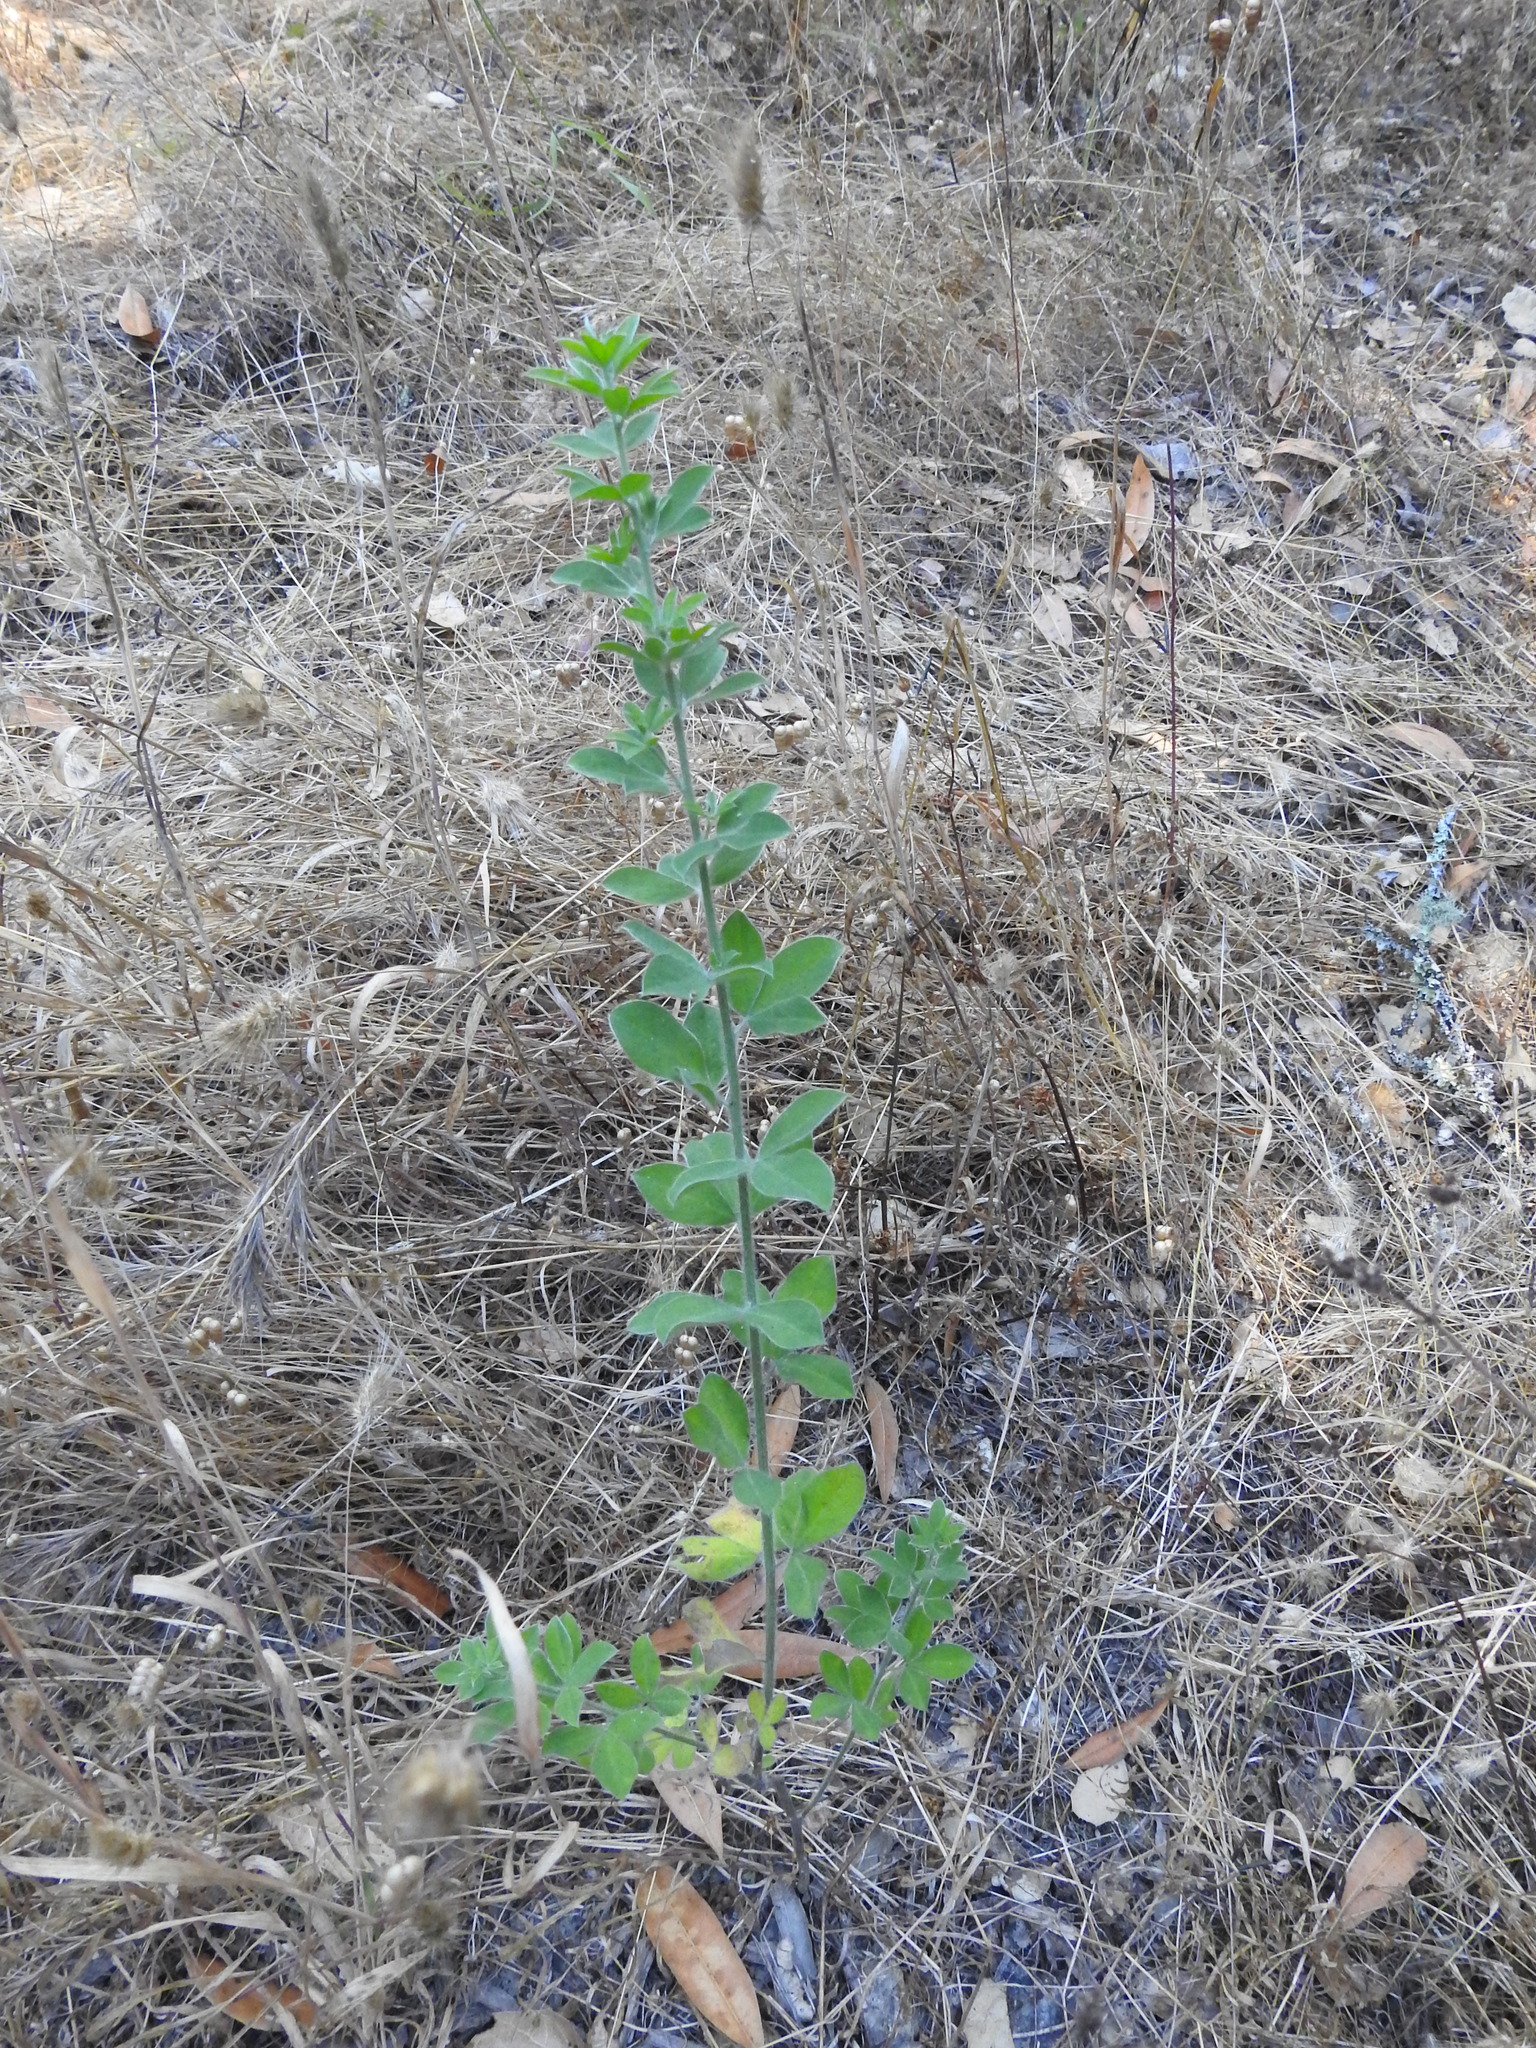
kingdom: Plantae
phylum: Tracheophyta
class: Magnoliopsida
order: Fabales
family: Fabaceae
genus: Genista
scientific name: Genista monspessulana
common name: Montpellier broom
